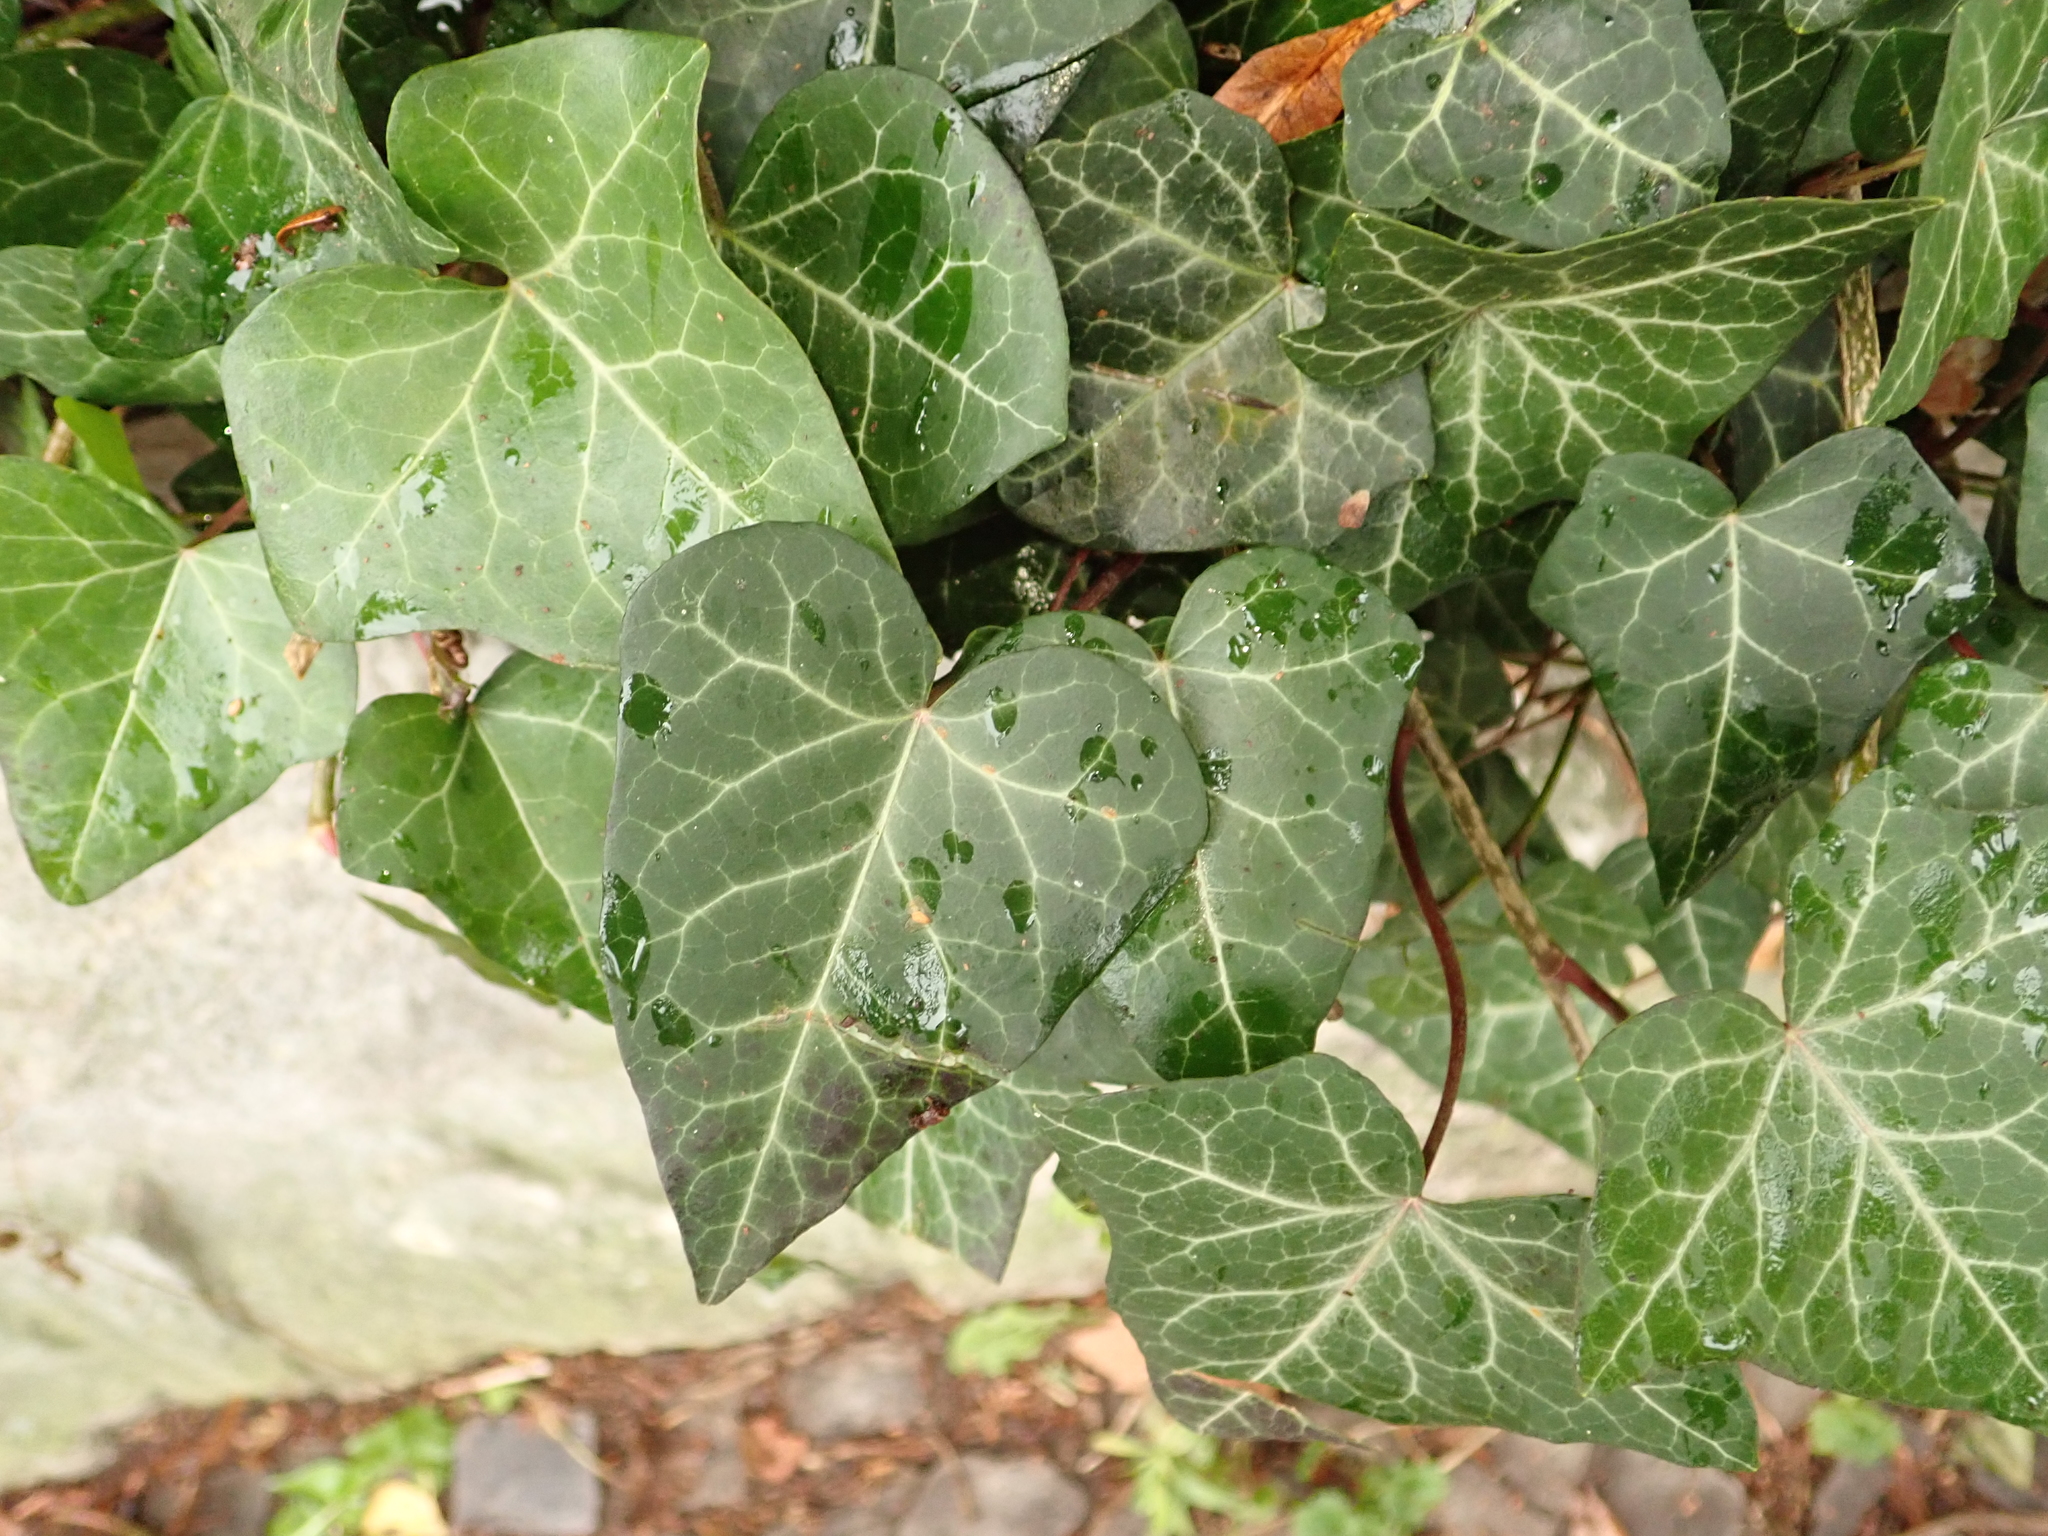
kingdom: Plantae
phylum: Tracheophyta
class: Magnoliopsida
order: Apiales
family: Araliaceae
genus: Hedera
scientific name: Hedera helix
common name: Ivy
